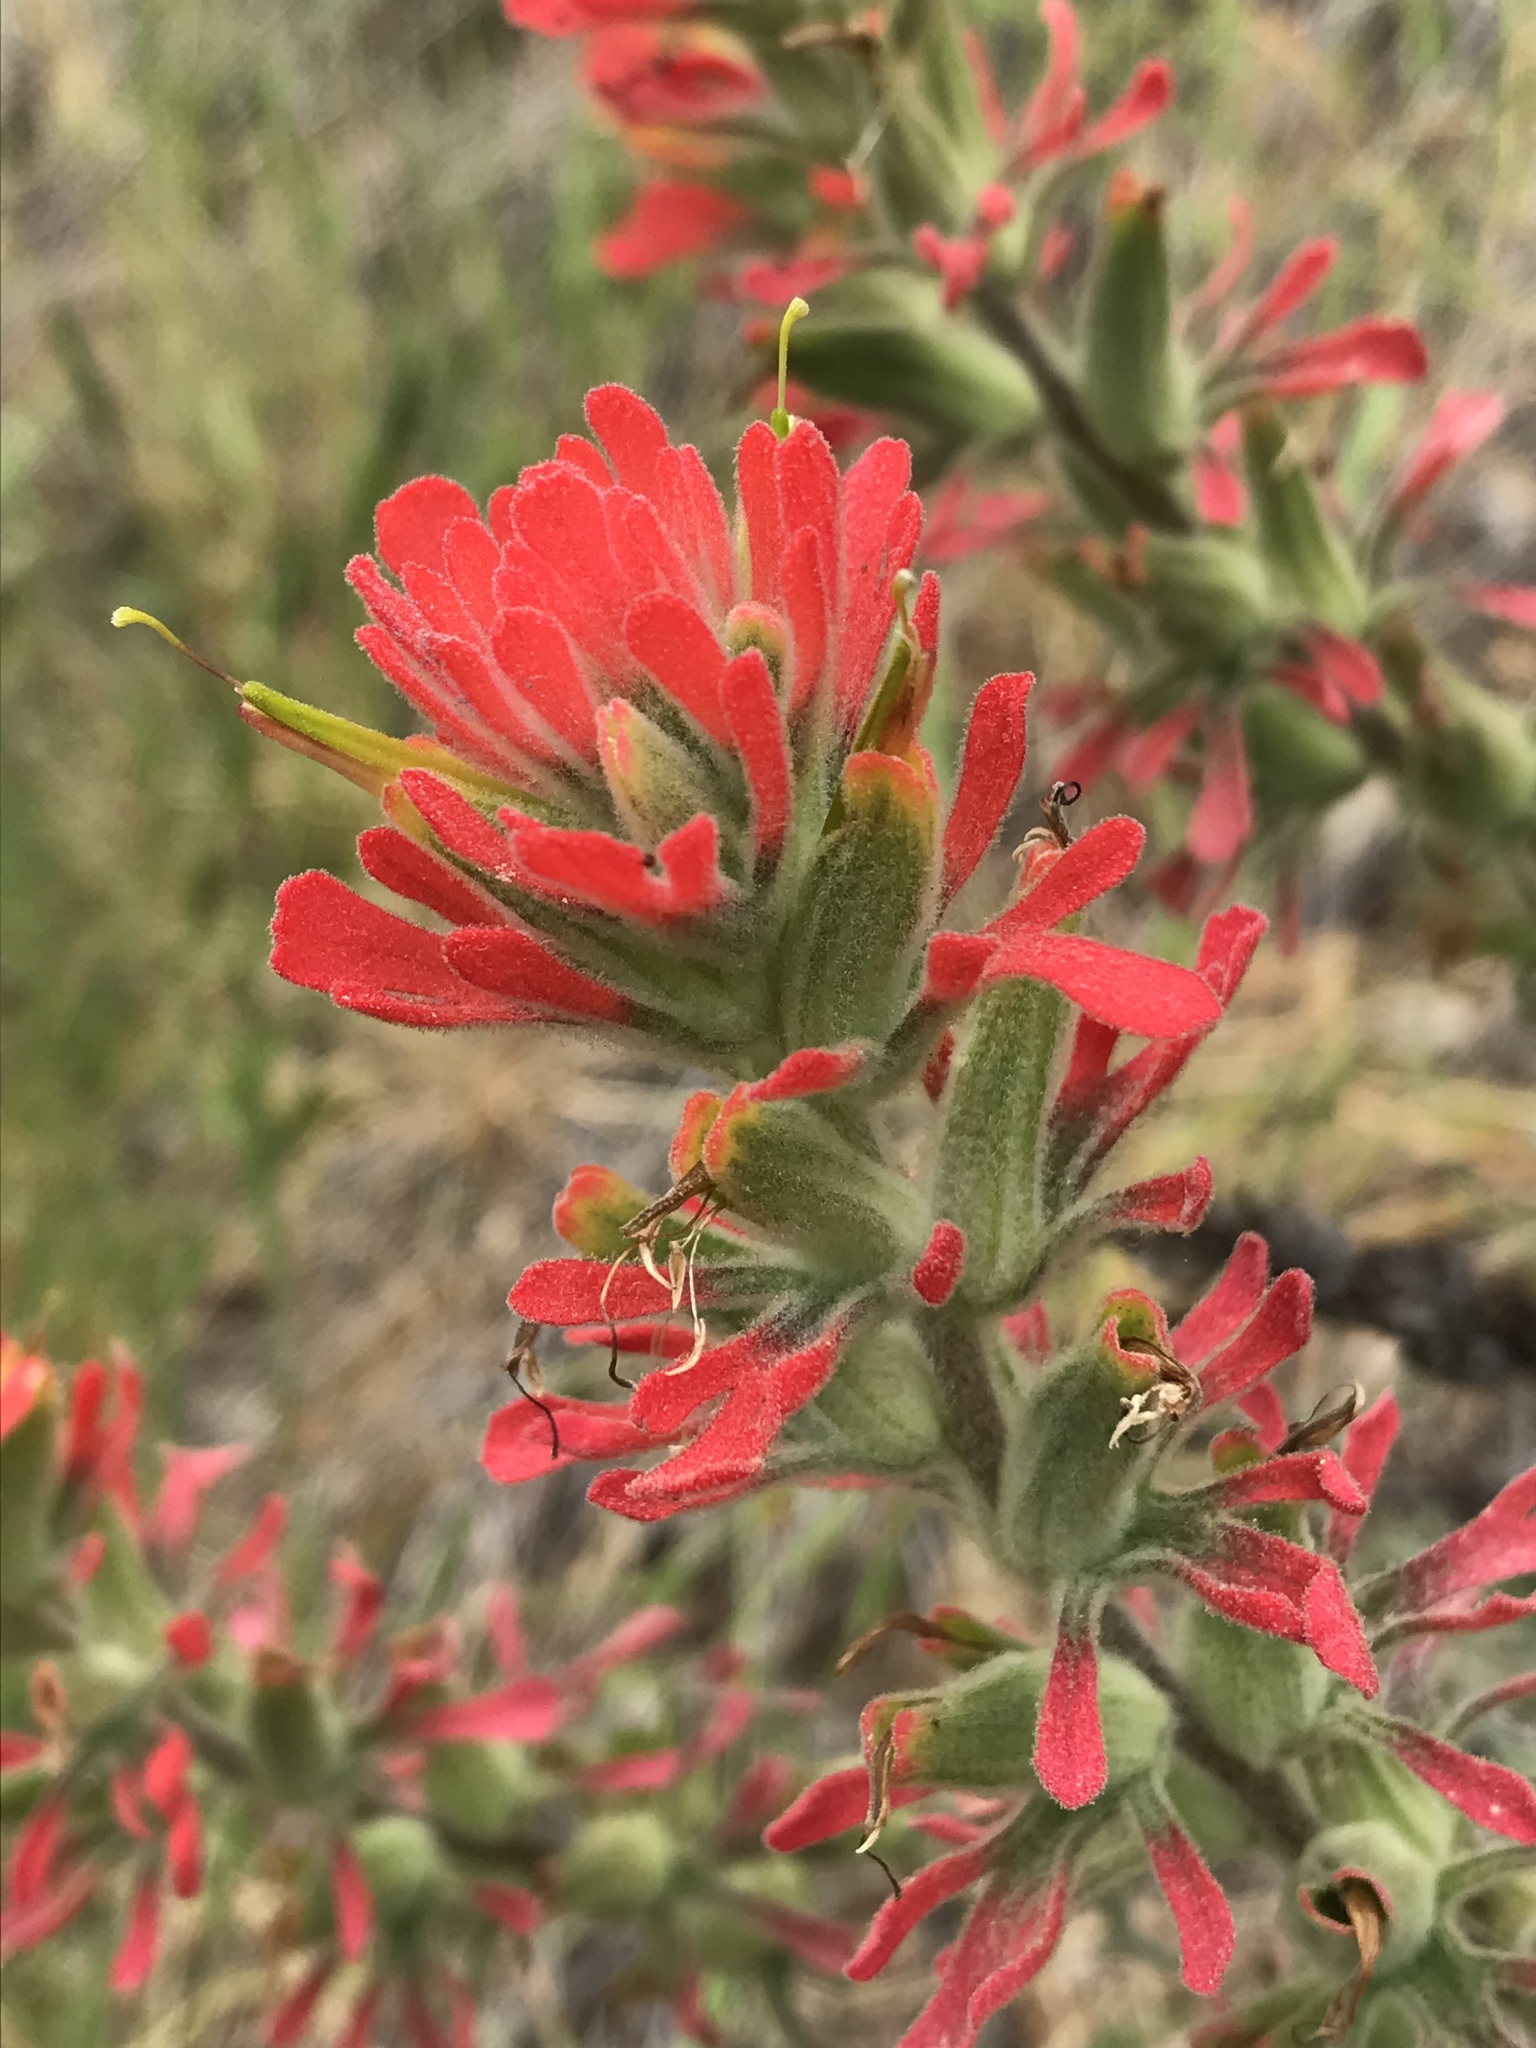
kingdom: Plantae
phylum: Tracheophyta
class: Magnoliopsida
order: Lamiales
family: Orobanchaceae
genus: Castilleja
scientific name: Castilleja foliolosa
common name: Woolly indian paintbrush
